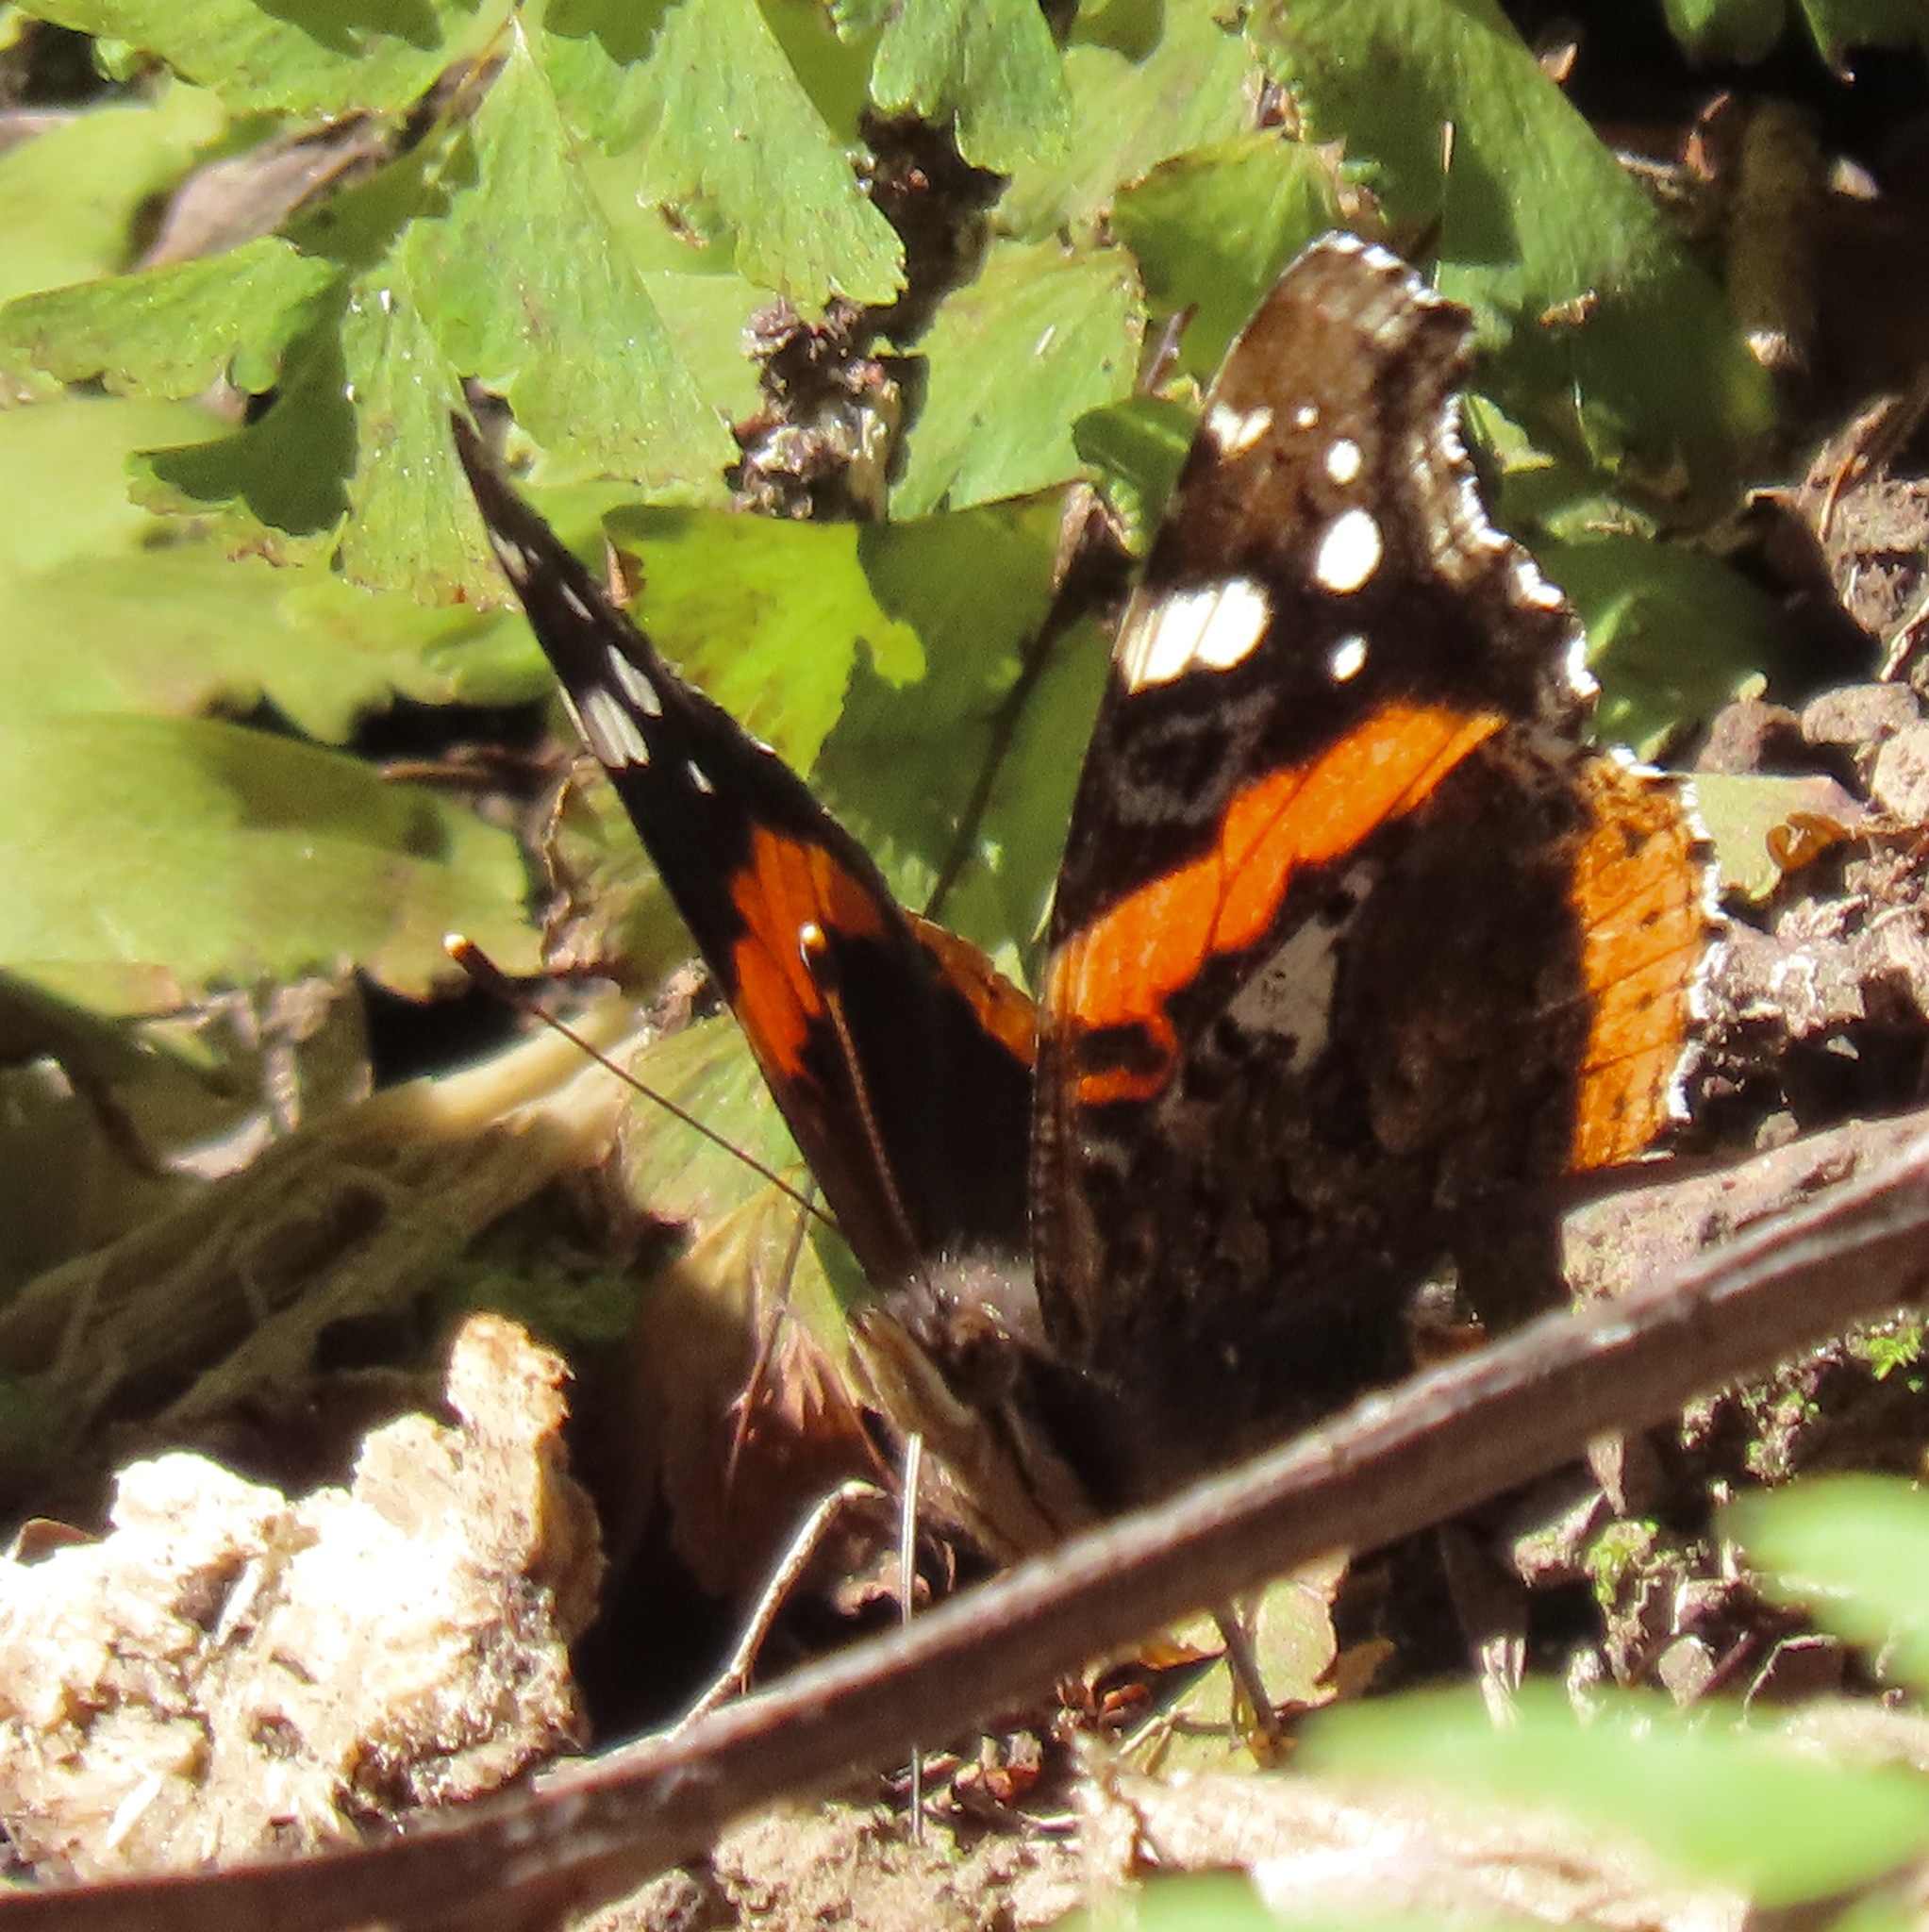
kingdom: Animalia
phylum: Arthropoda
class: Insecta
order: Lepidoptera
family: Nymphalidae
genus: Vanessa
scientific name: Vanessa atalanta
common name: Red admiral
